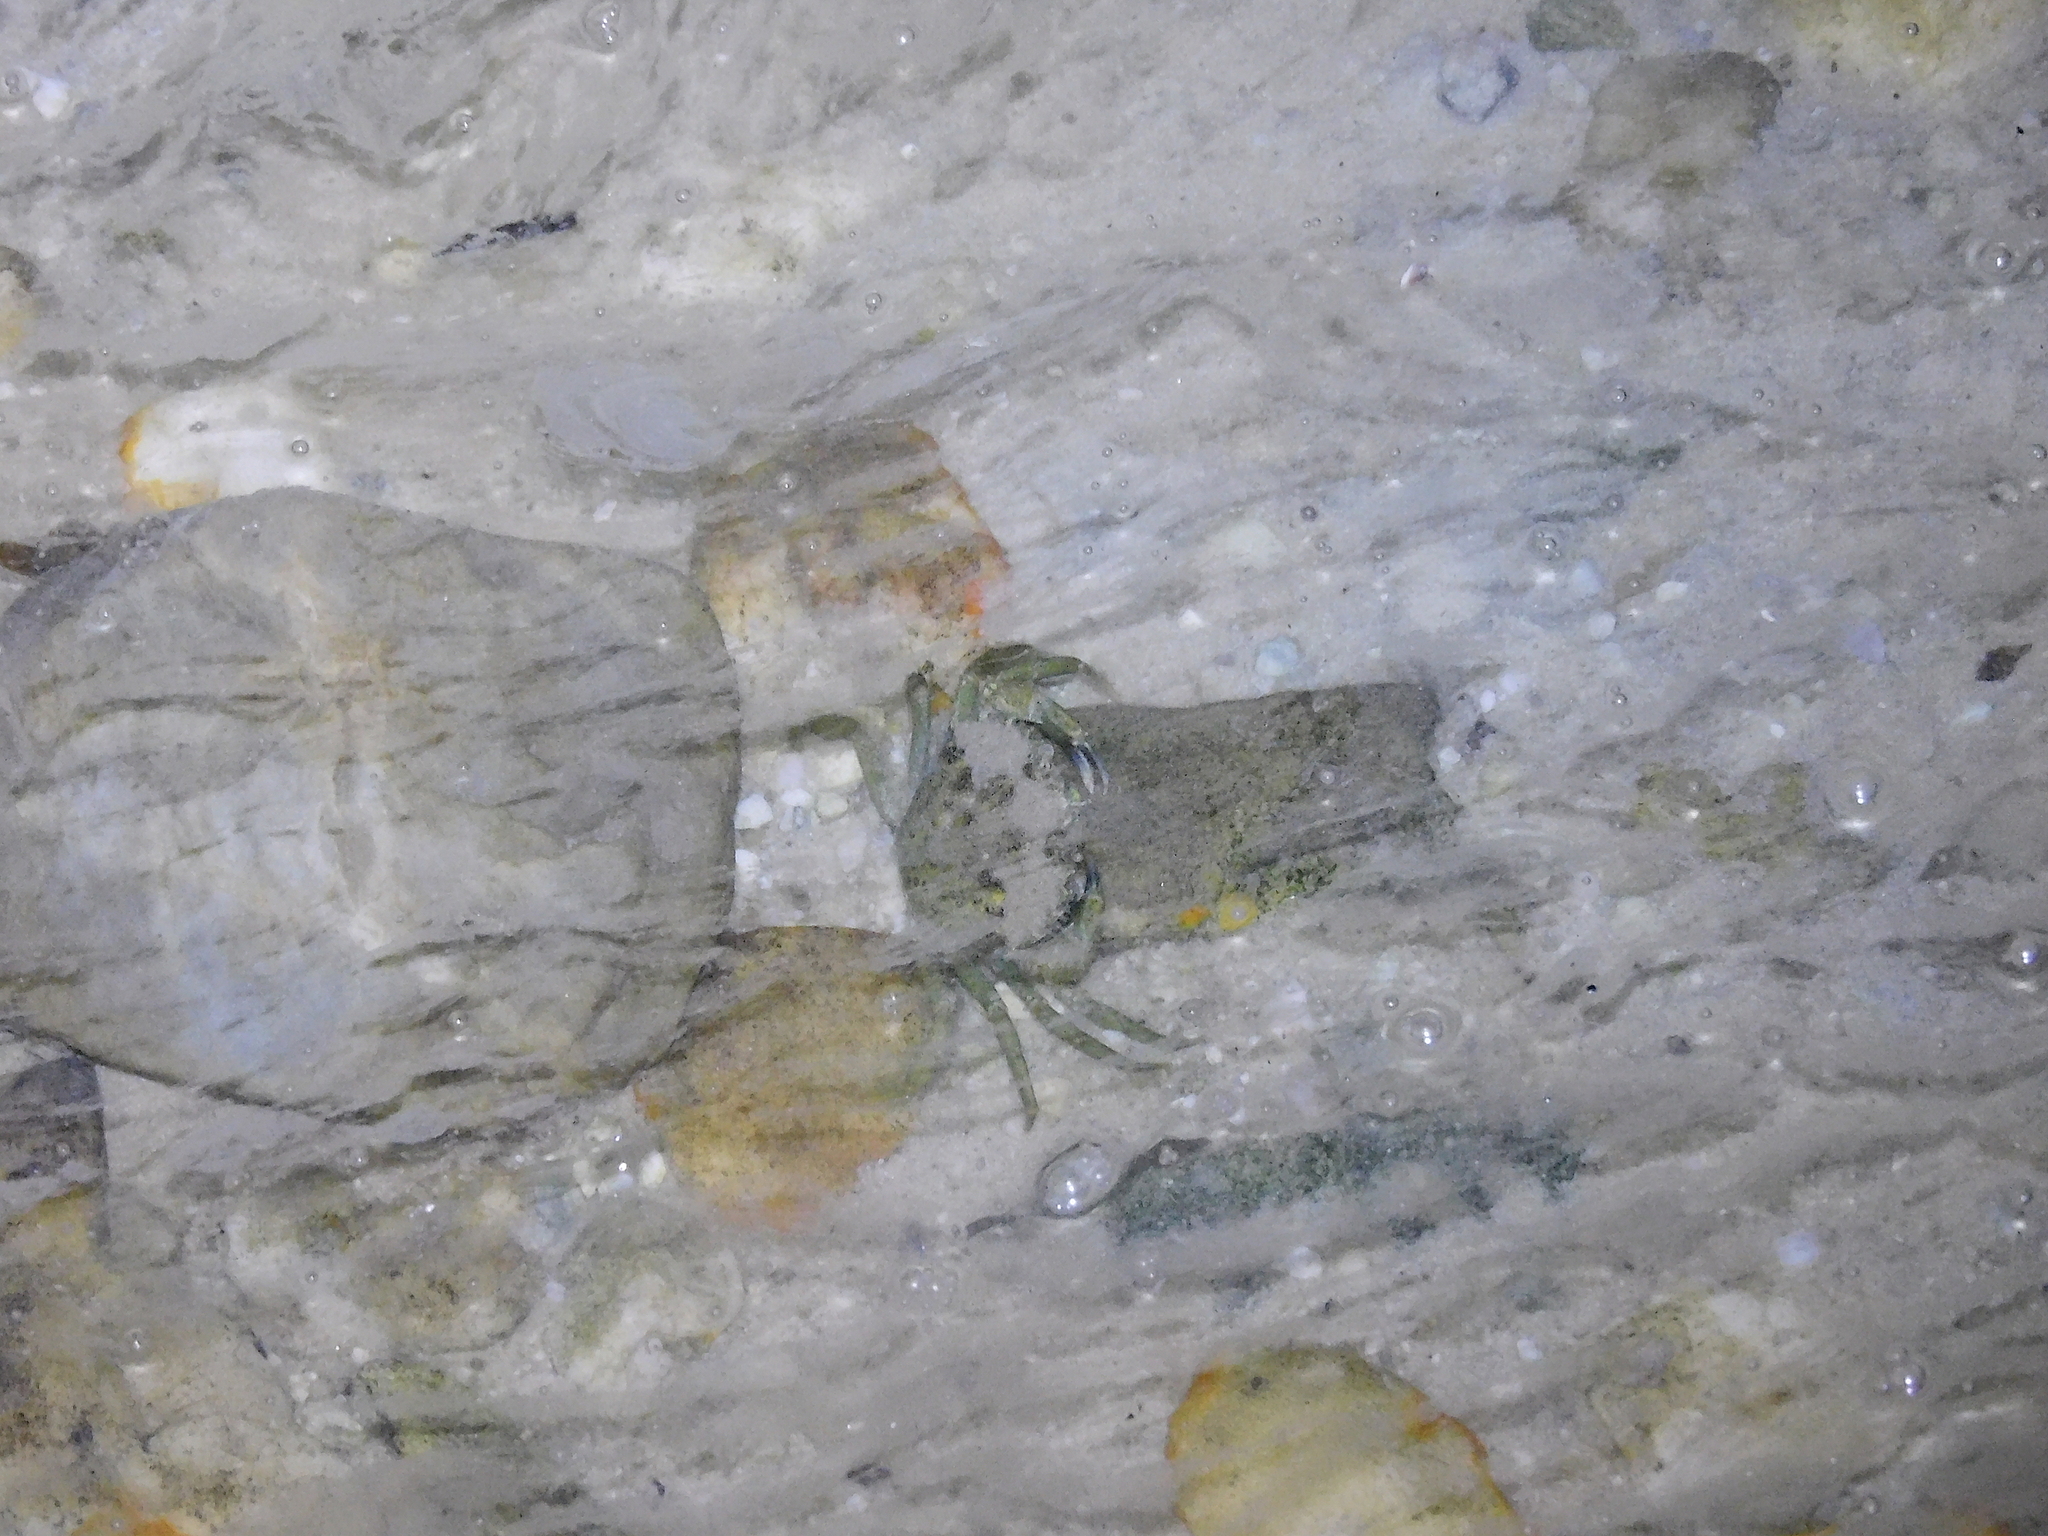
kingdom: Animalia
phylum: Arthropoda
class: Malacostraca
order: Decapoda
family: Carcinidae
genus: Carcinus
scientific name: Carcinus maenas
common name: European green crab
